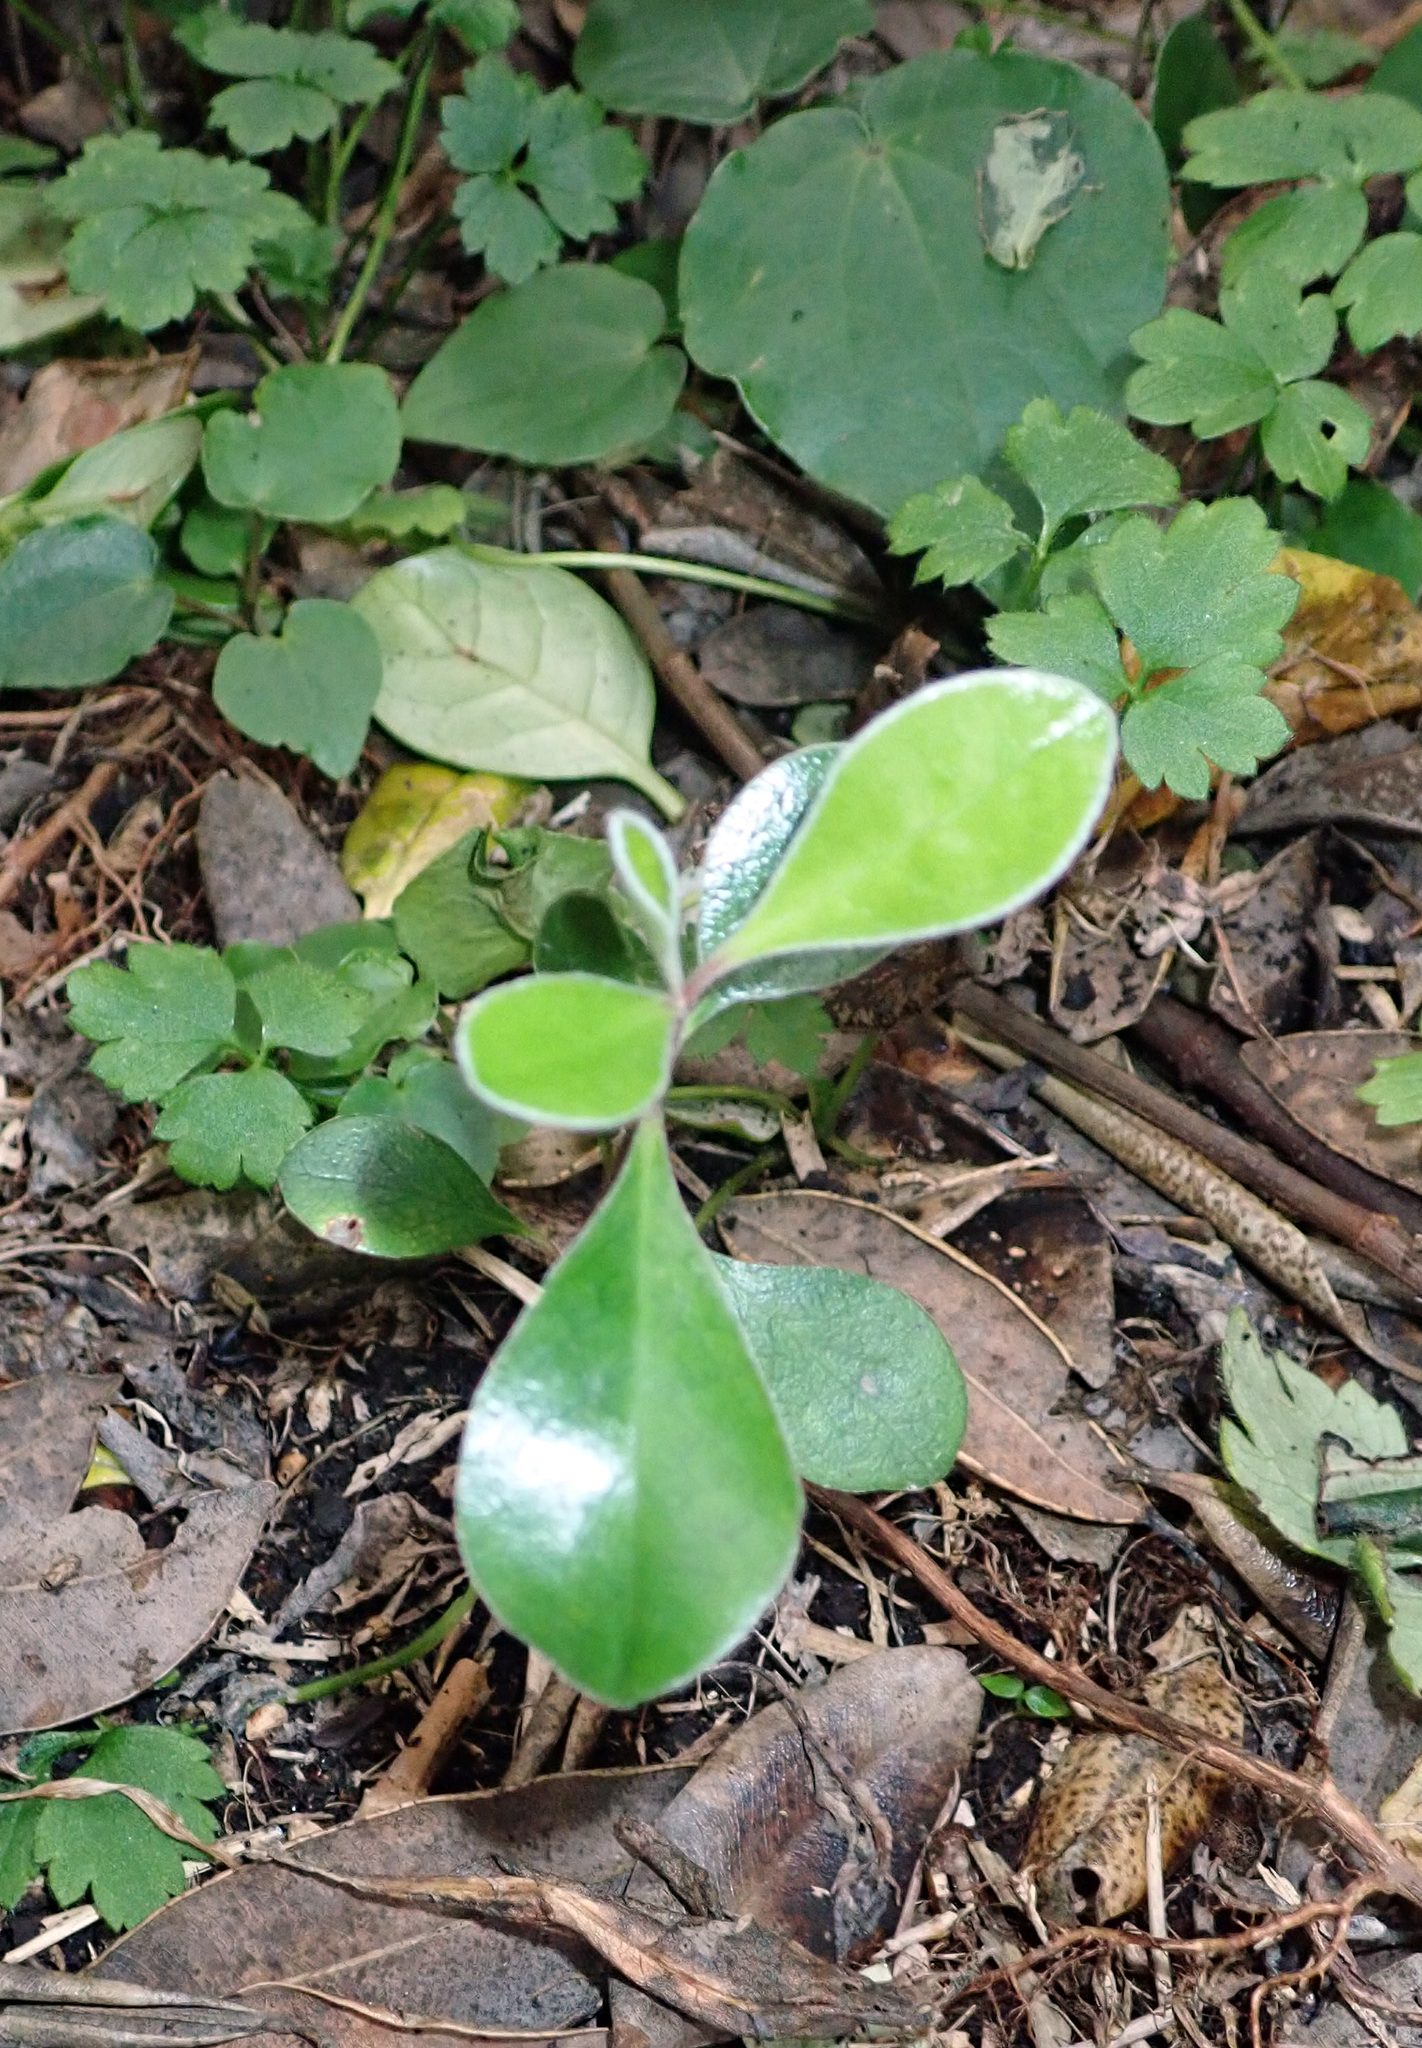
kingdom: Plantae
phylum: Tracheophyta
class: Magnoliopsida
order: Apiales
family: Pittosporaceae
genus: Pittosporum
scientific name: Pittosporum crassifolium
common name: Karo
